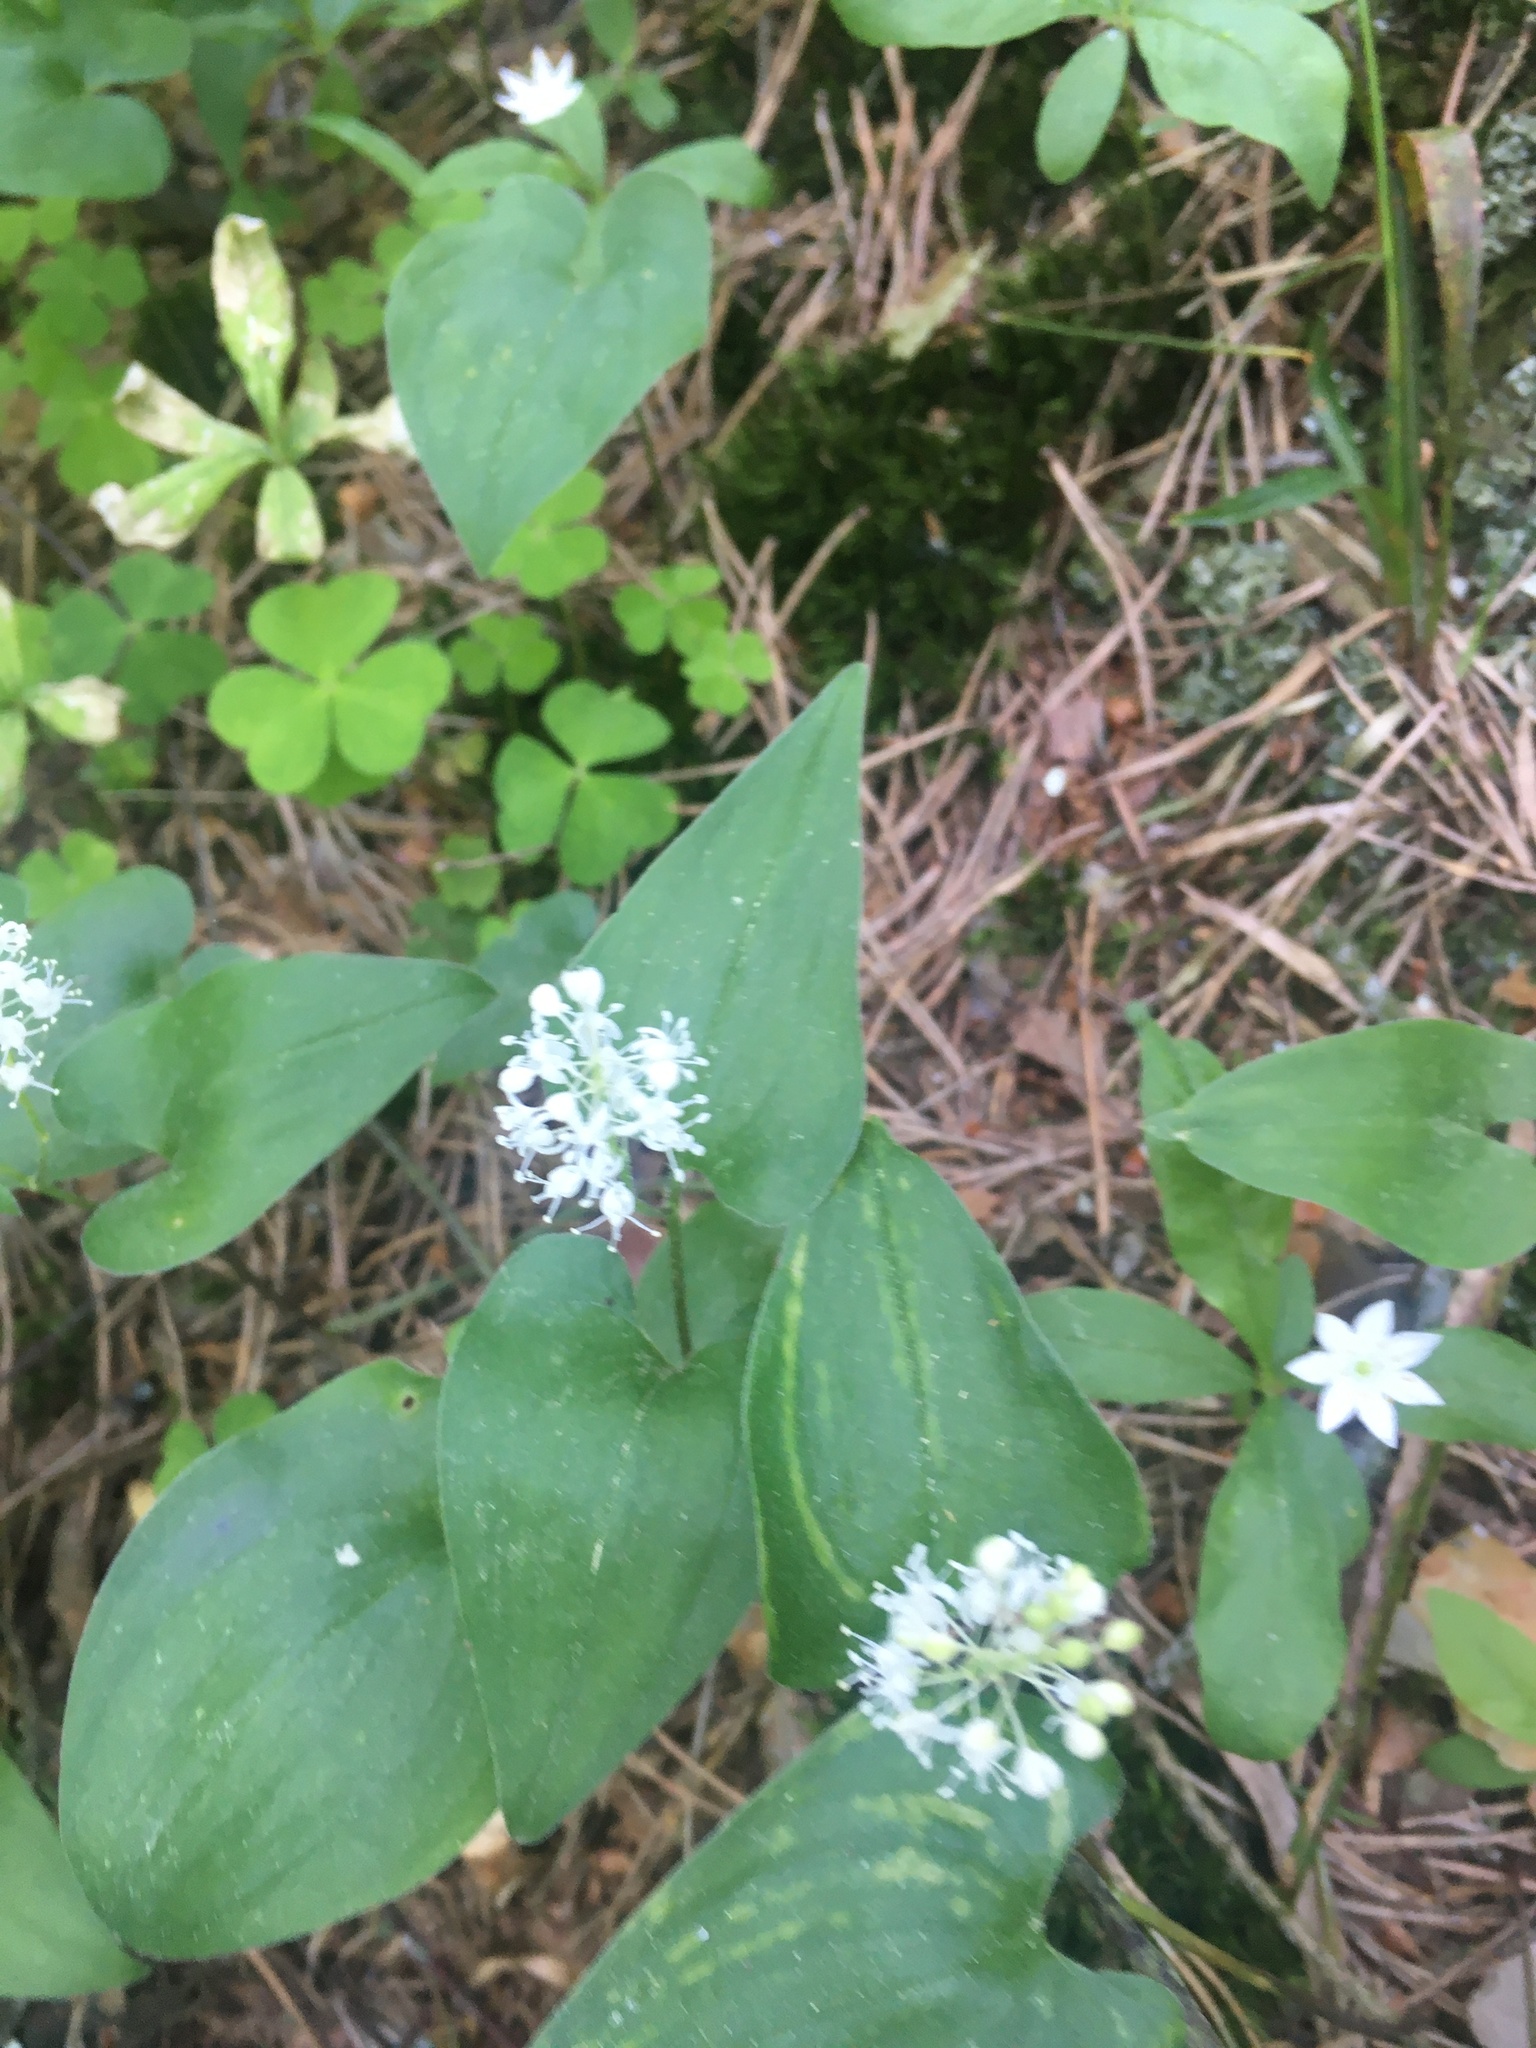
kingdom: Plantae
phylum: Tracheophyta
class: Liliopsida
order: Asparagales
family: Asparagaceae
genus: Maianthemum
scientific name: Maianthemum bifolium
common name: May lily
